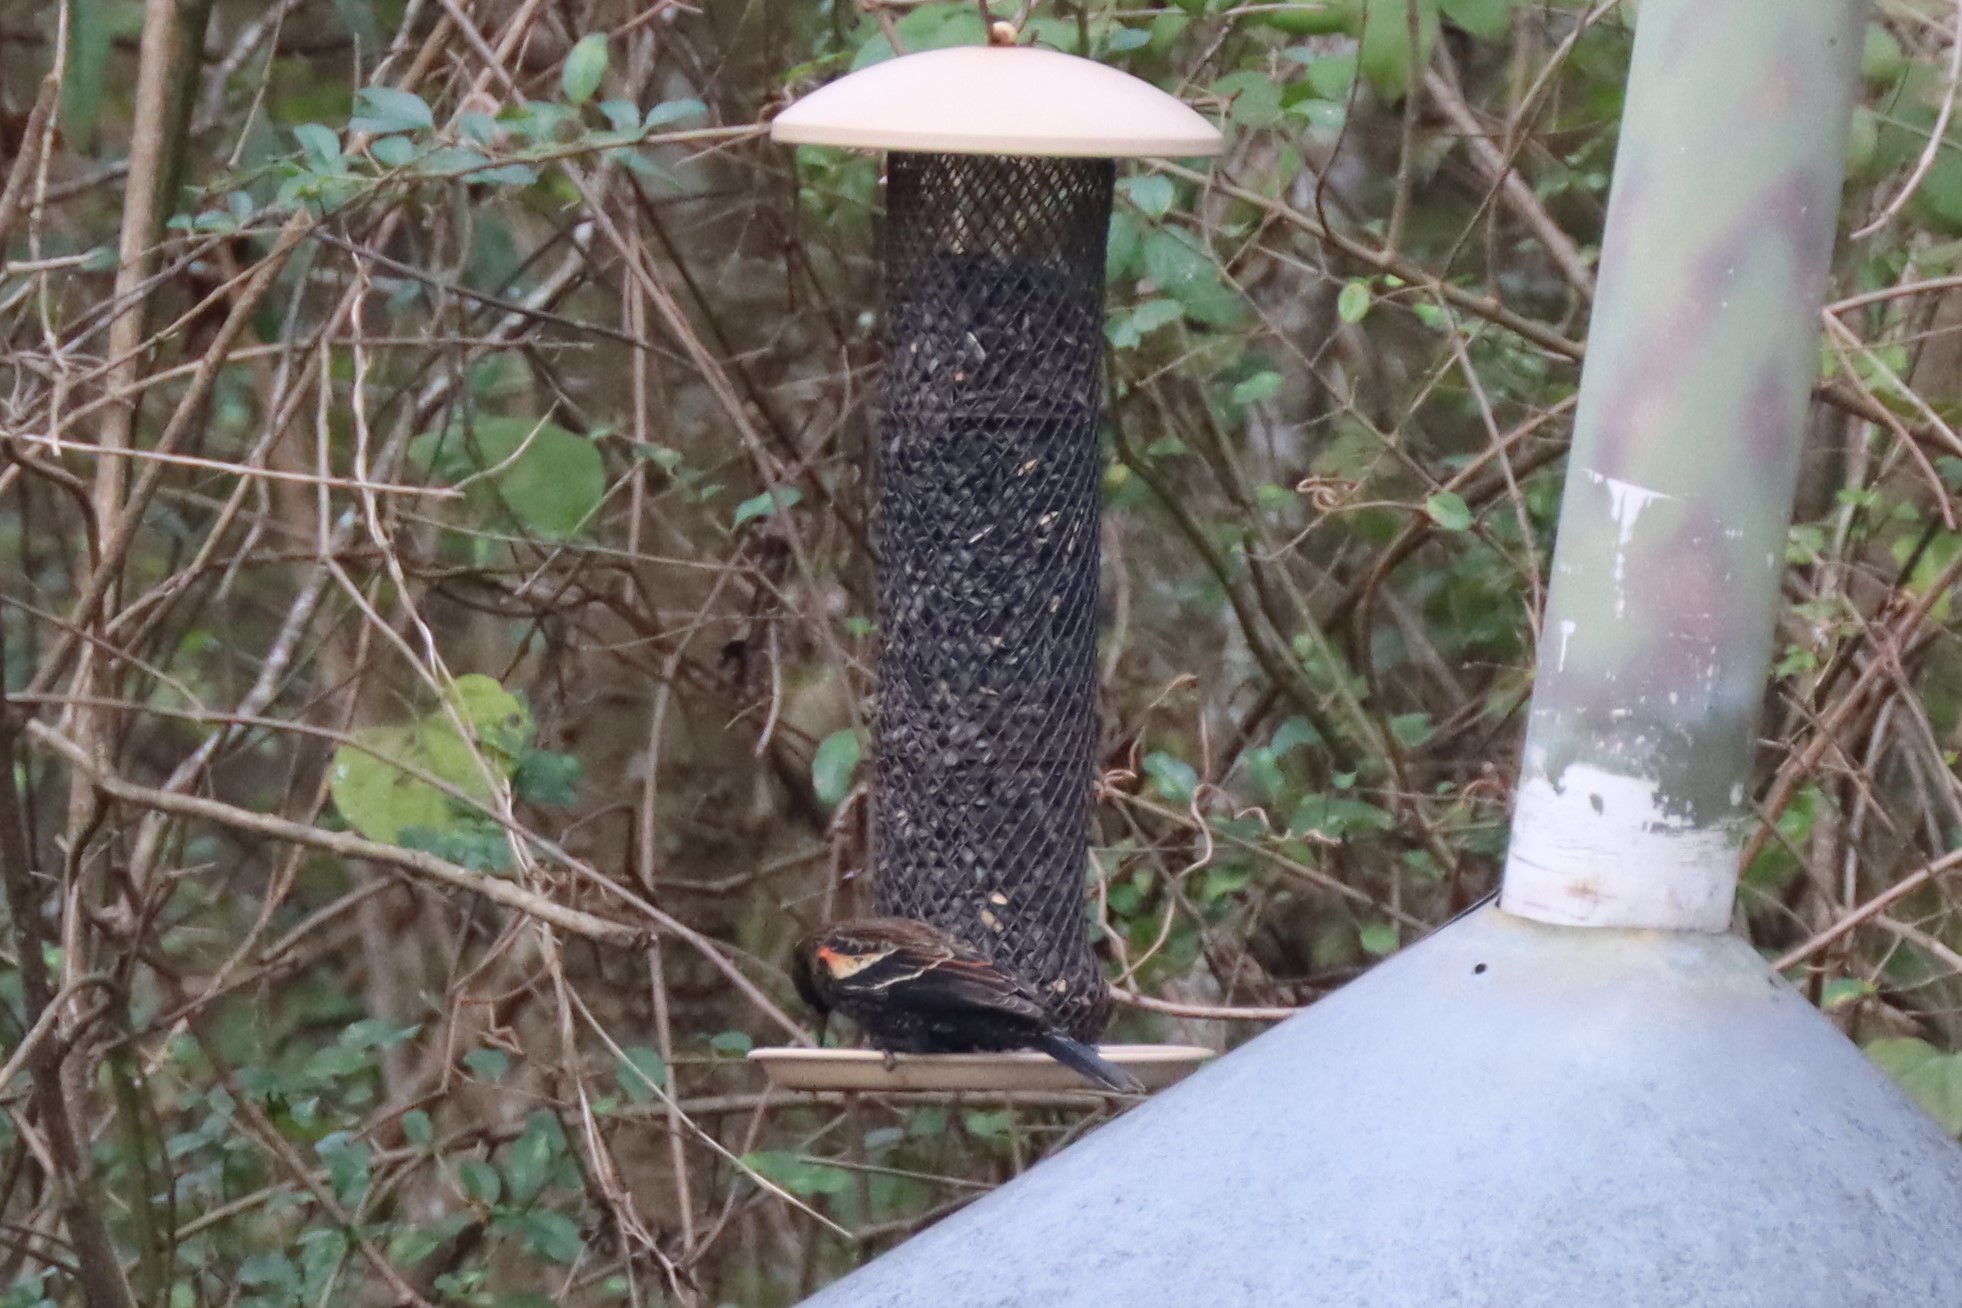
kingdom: Animalia
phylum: Chordata
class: Aves
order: Passeriformes
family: Icteridae
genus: Agelaius
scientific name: Agelaius phoeniceus
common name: Red-winged blackbird
